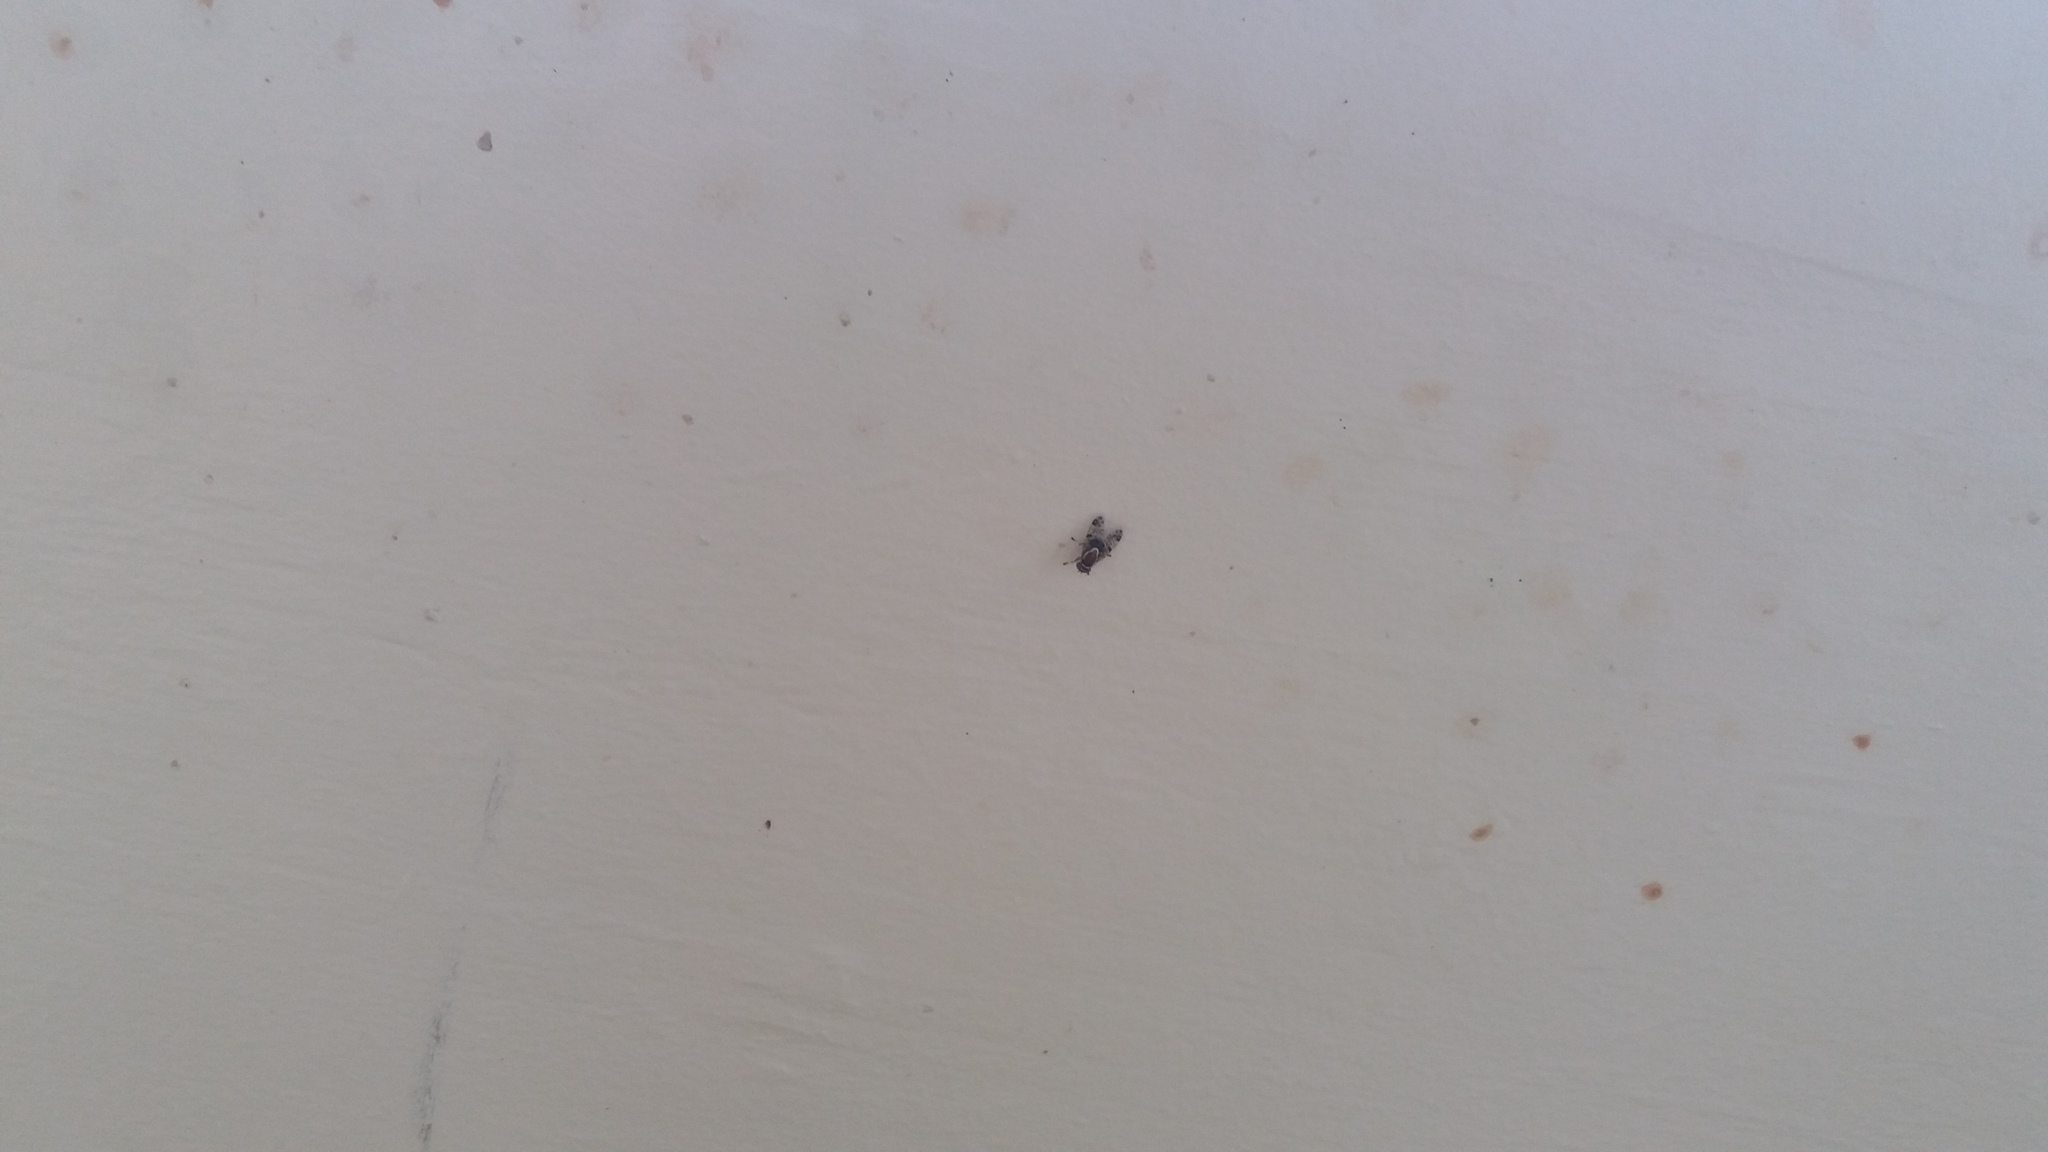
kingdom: Animalia
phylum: Arthropoda
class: Insecta
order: Diptera
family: Platystomatidae
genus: Scholastes
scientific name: Scholastes bimaculatus
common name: Picture-winged fly
